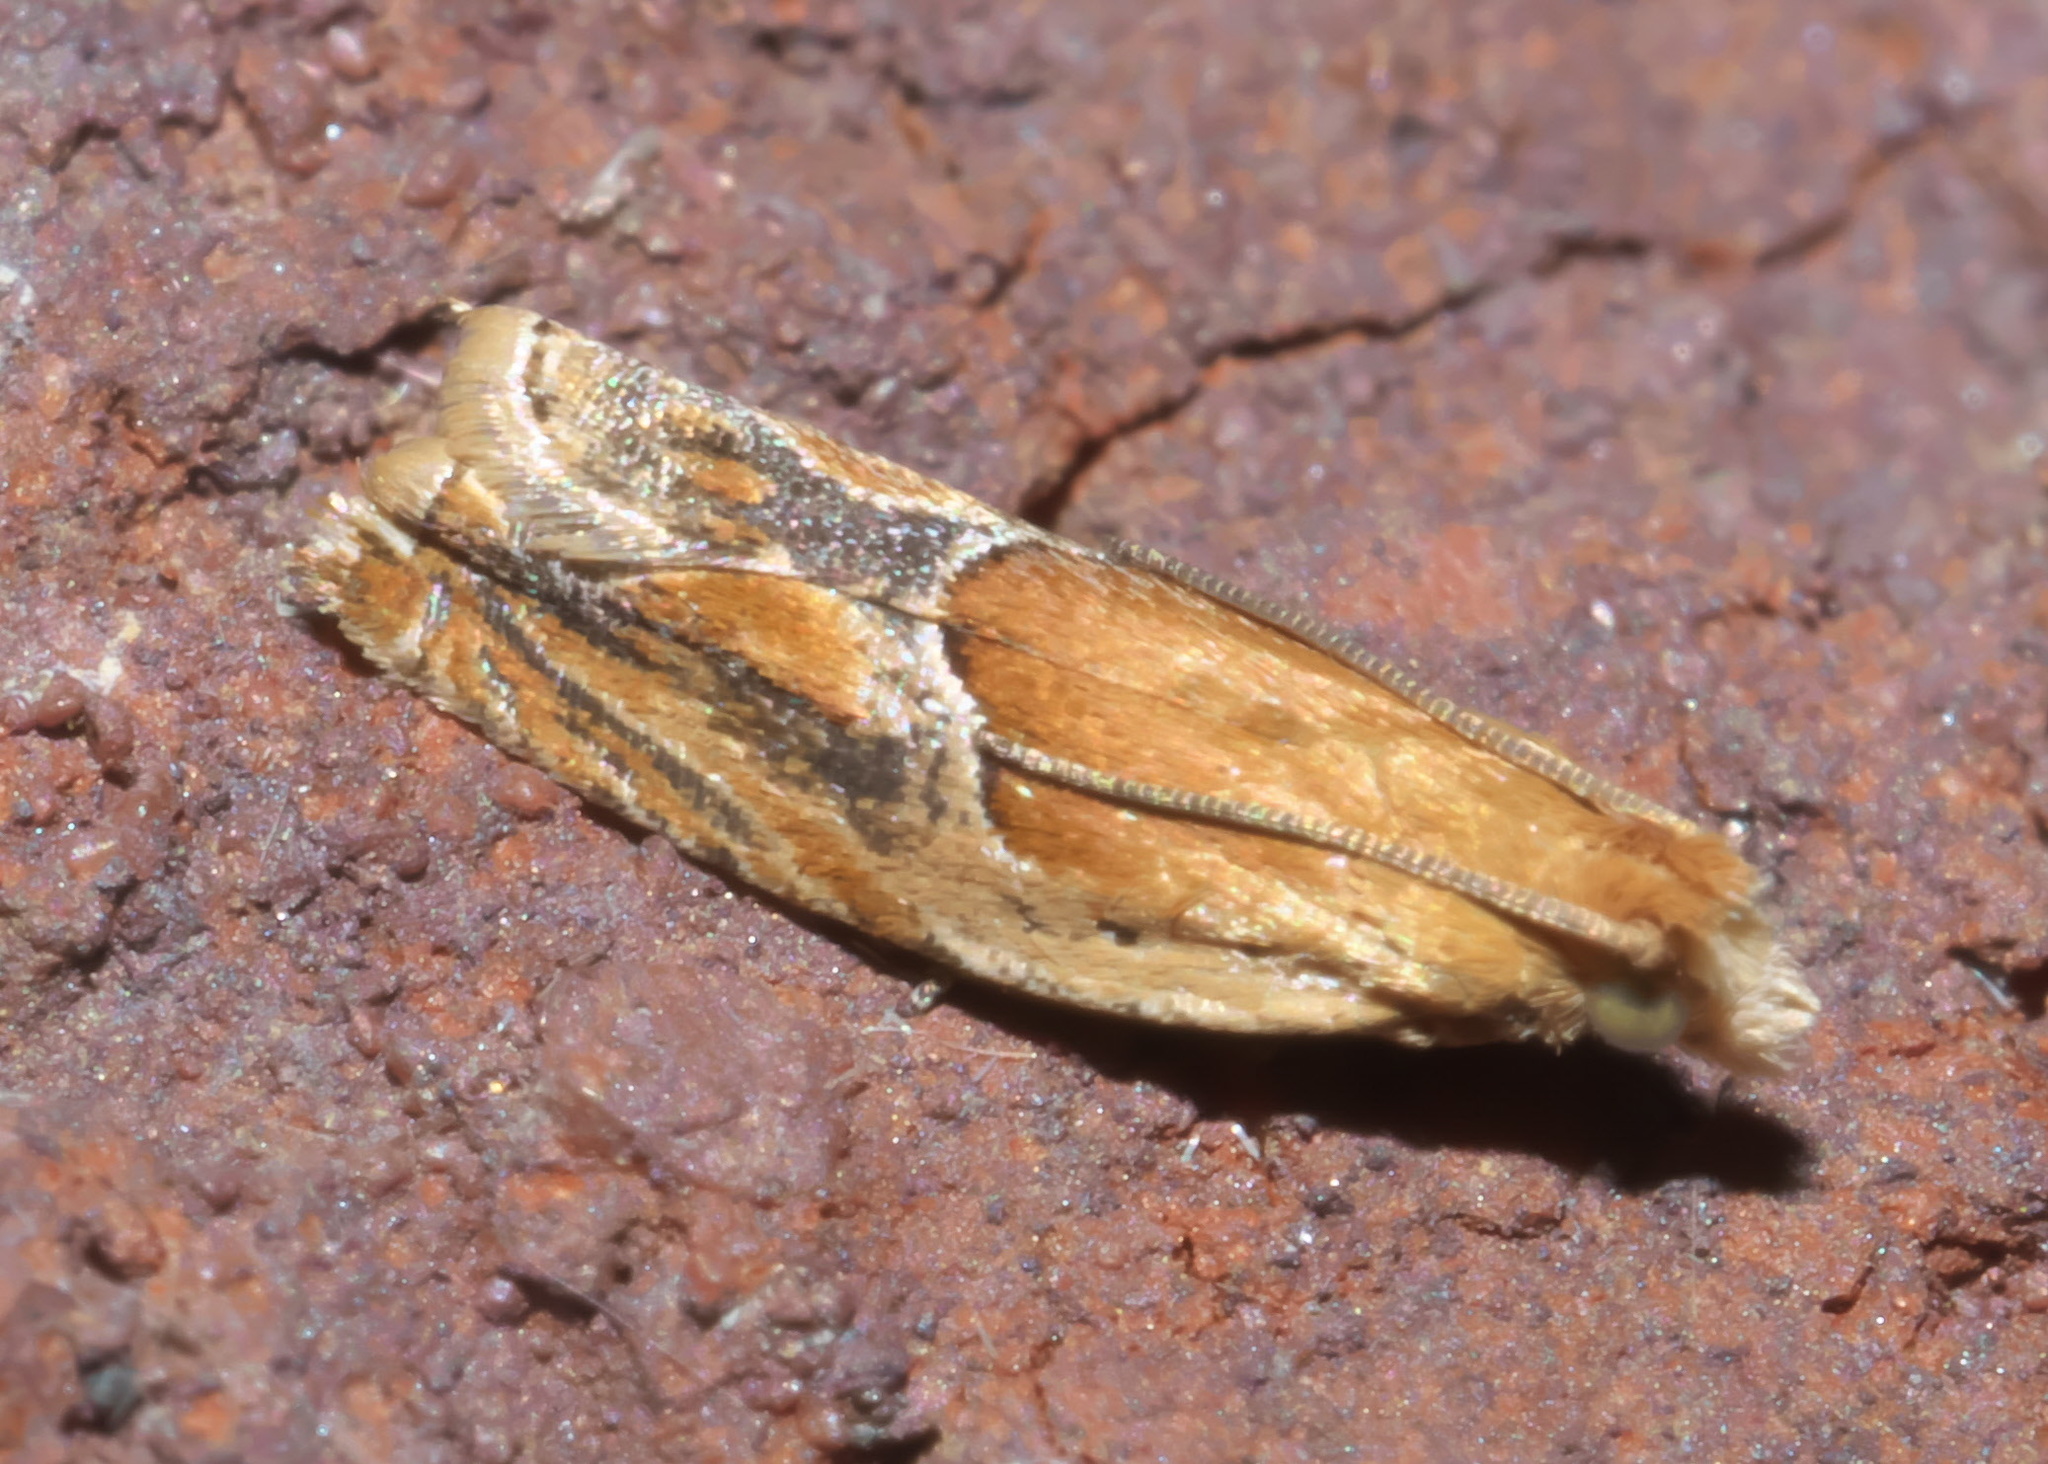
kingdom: Animalia
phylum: Arthropoda
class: Insecta
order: Lepidoptera
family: Tortricidae
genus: Ancylis
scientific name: Ancylis comptana
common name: Little roller
